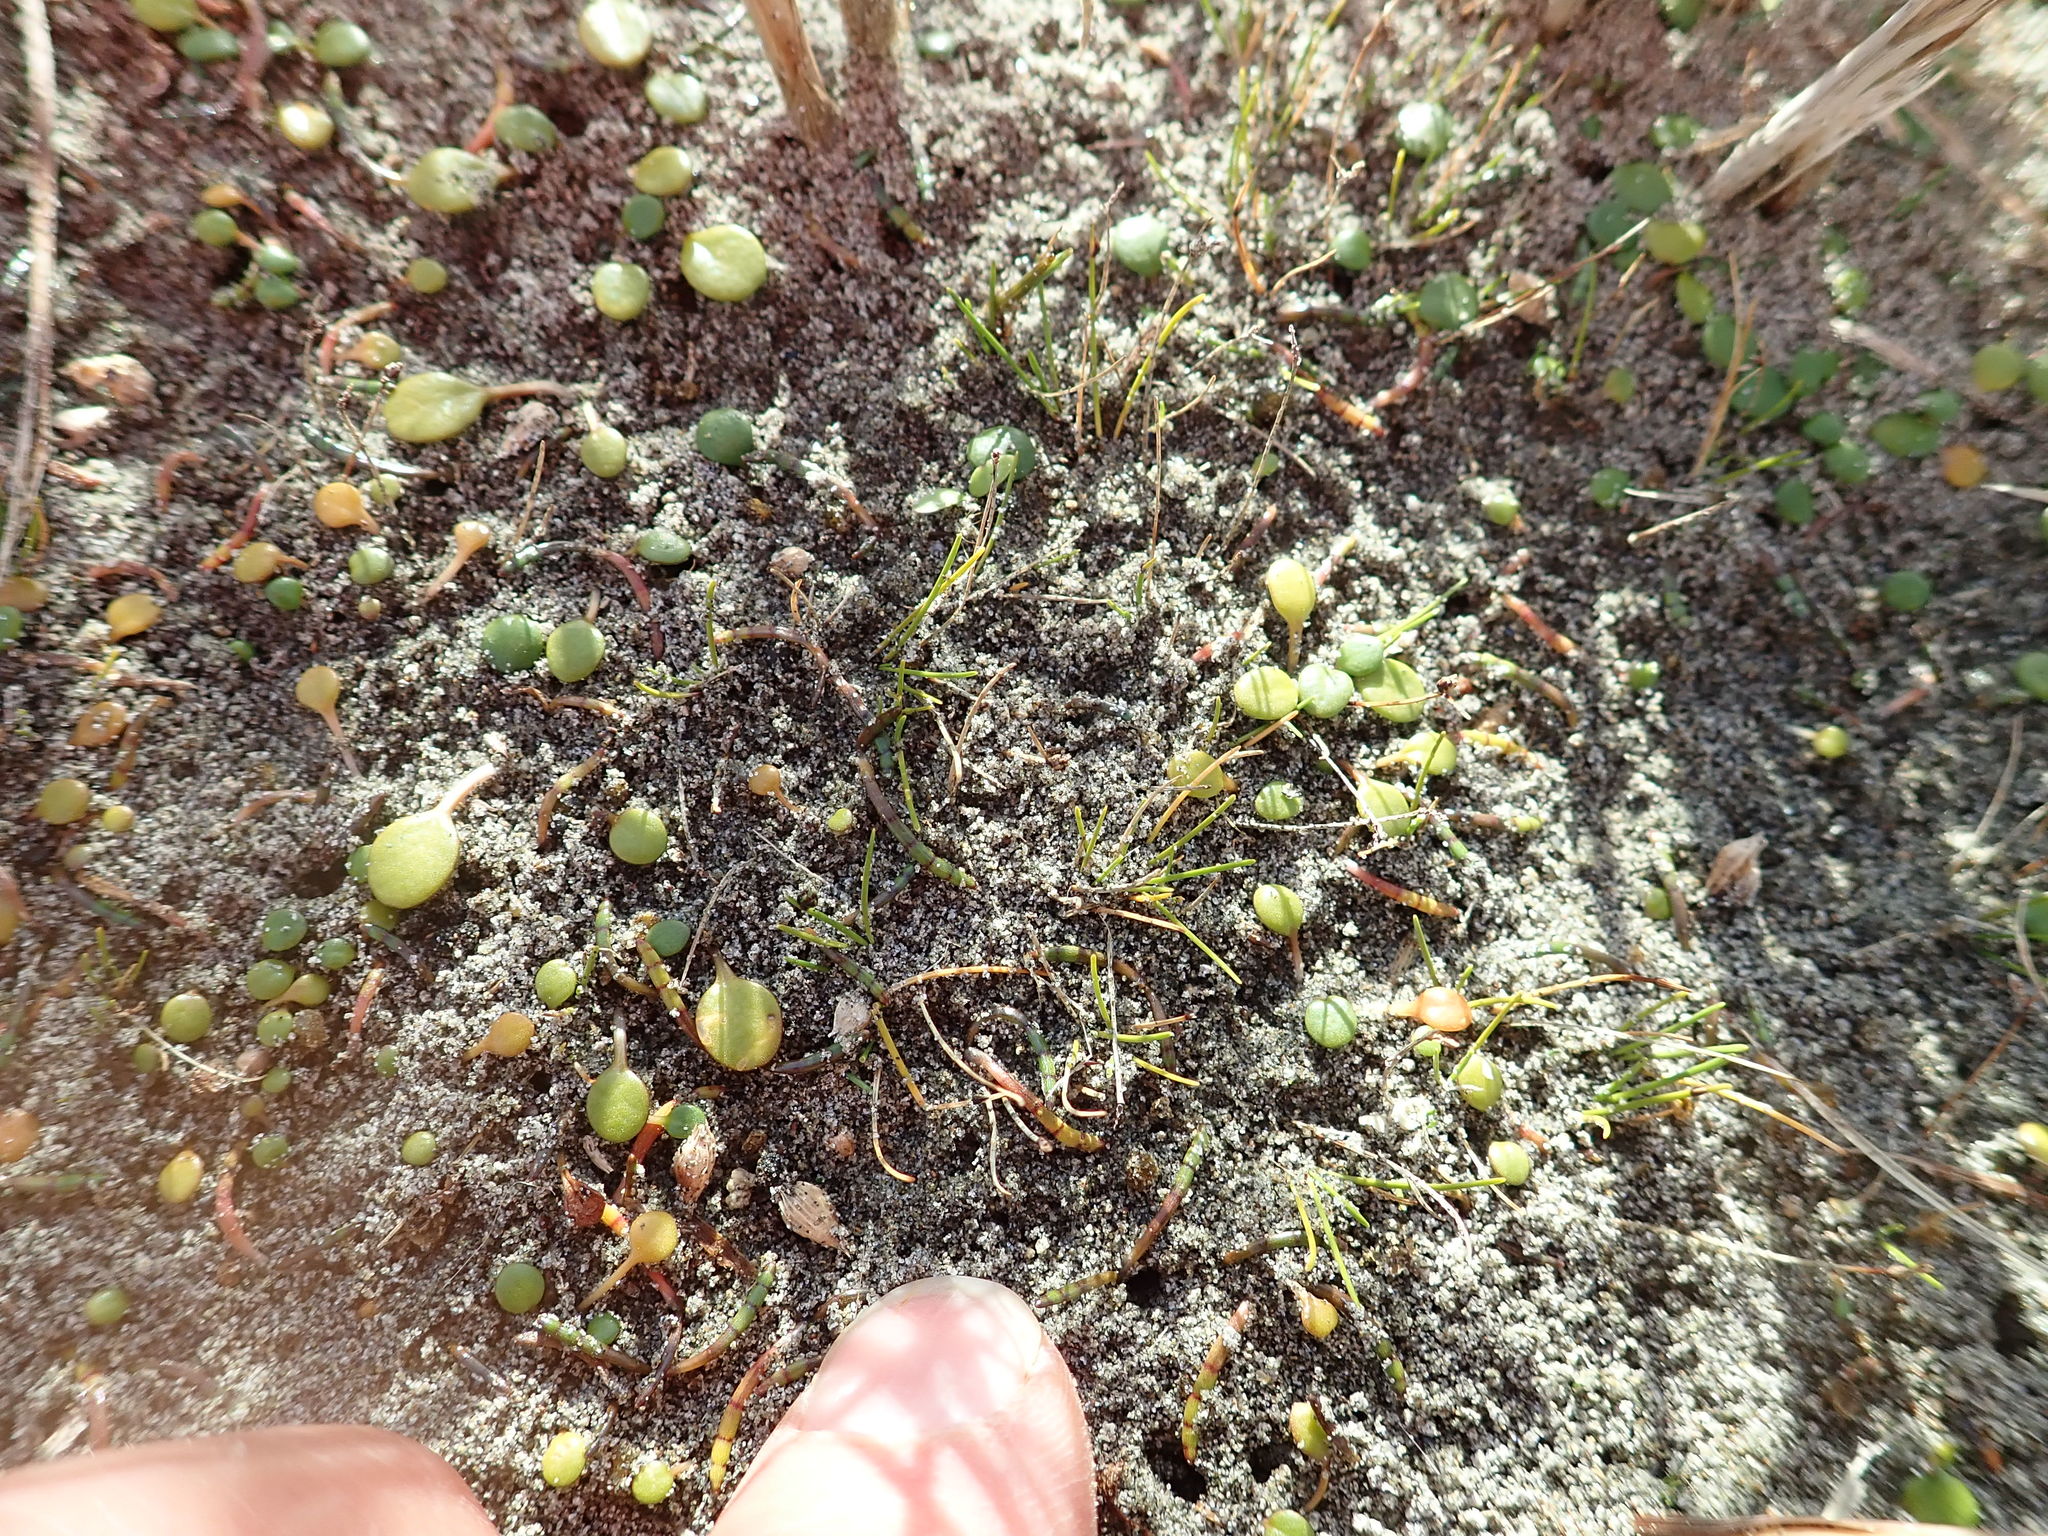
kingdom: Plantae
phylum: Tracheophyta
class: Magnoliopsida
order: Apiales
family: Apiaceae
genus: Lilaeopsis
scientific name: Lilaeopsis novae-zelandiae
